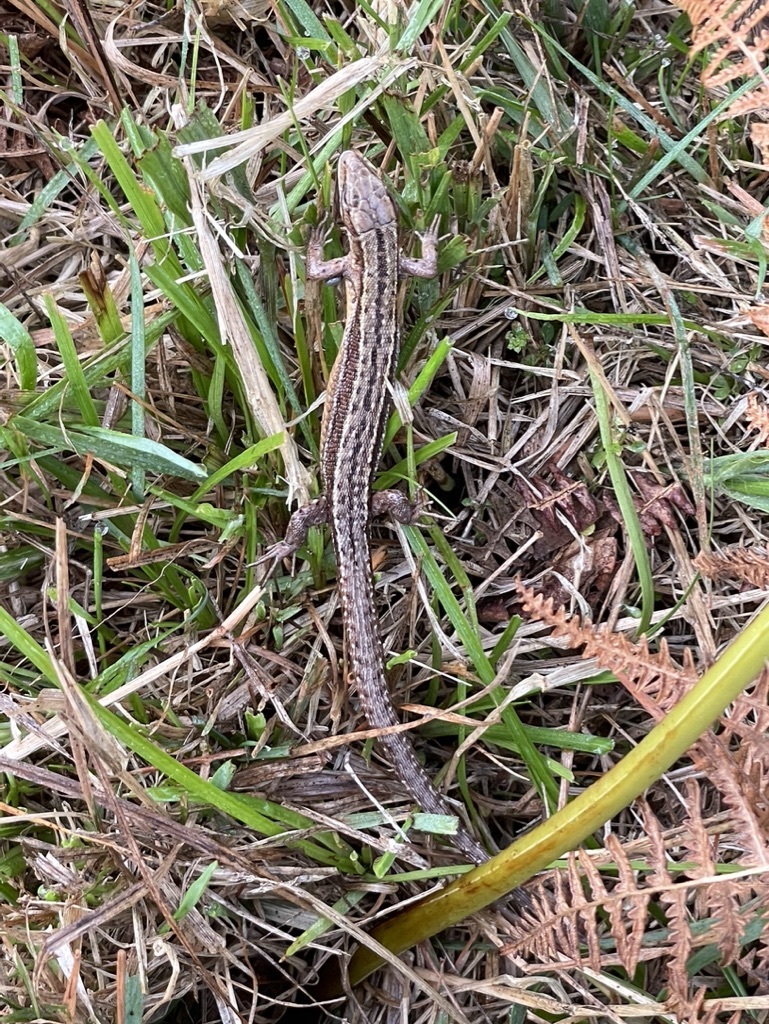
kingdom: Animalia
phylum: Chordata
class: Squamata
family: Lacertidae
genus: Zootoca
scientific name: Zootoca vivipara
